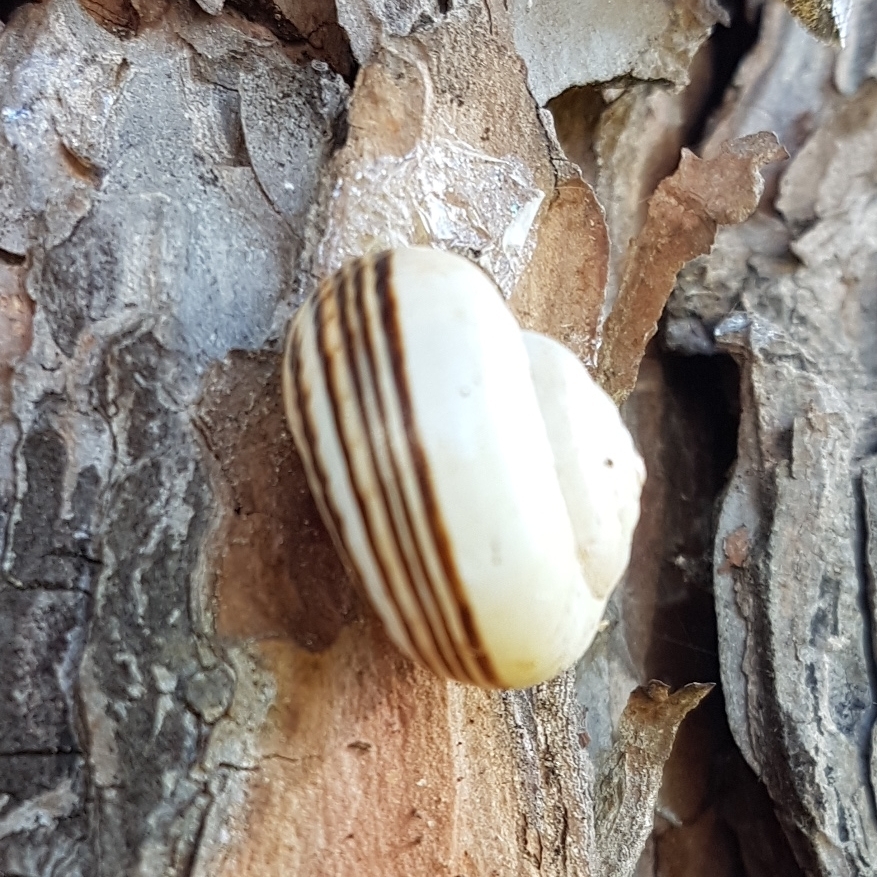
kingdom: Animalia
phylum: Mollusca
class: Gastropoda
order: Stylommatophora
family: Helicidae
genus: Theba
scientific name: Theba pisana
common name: White snail
